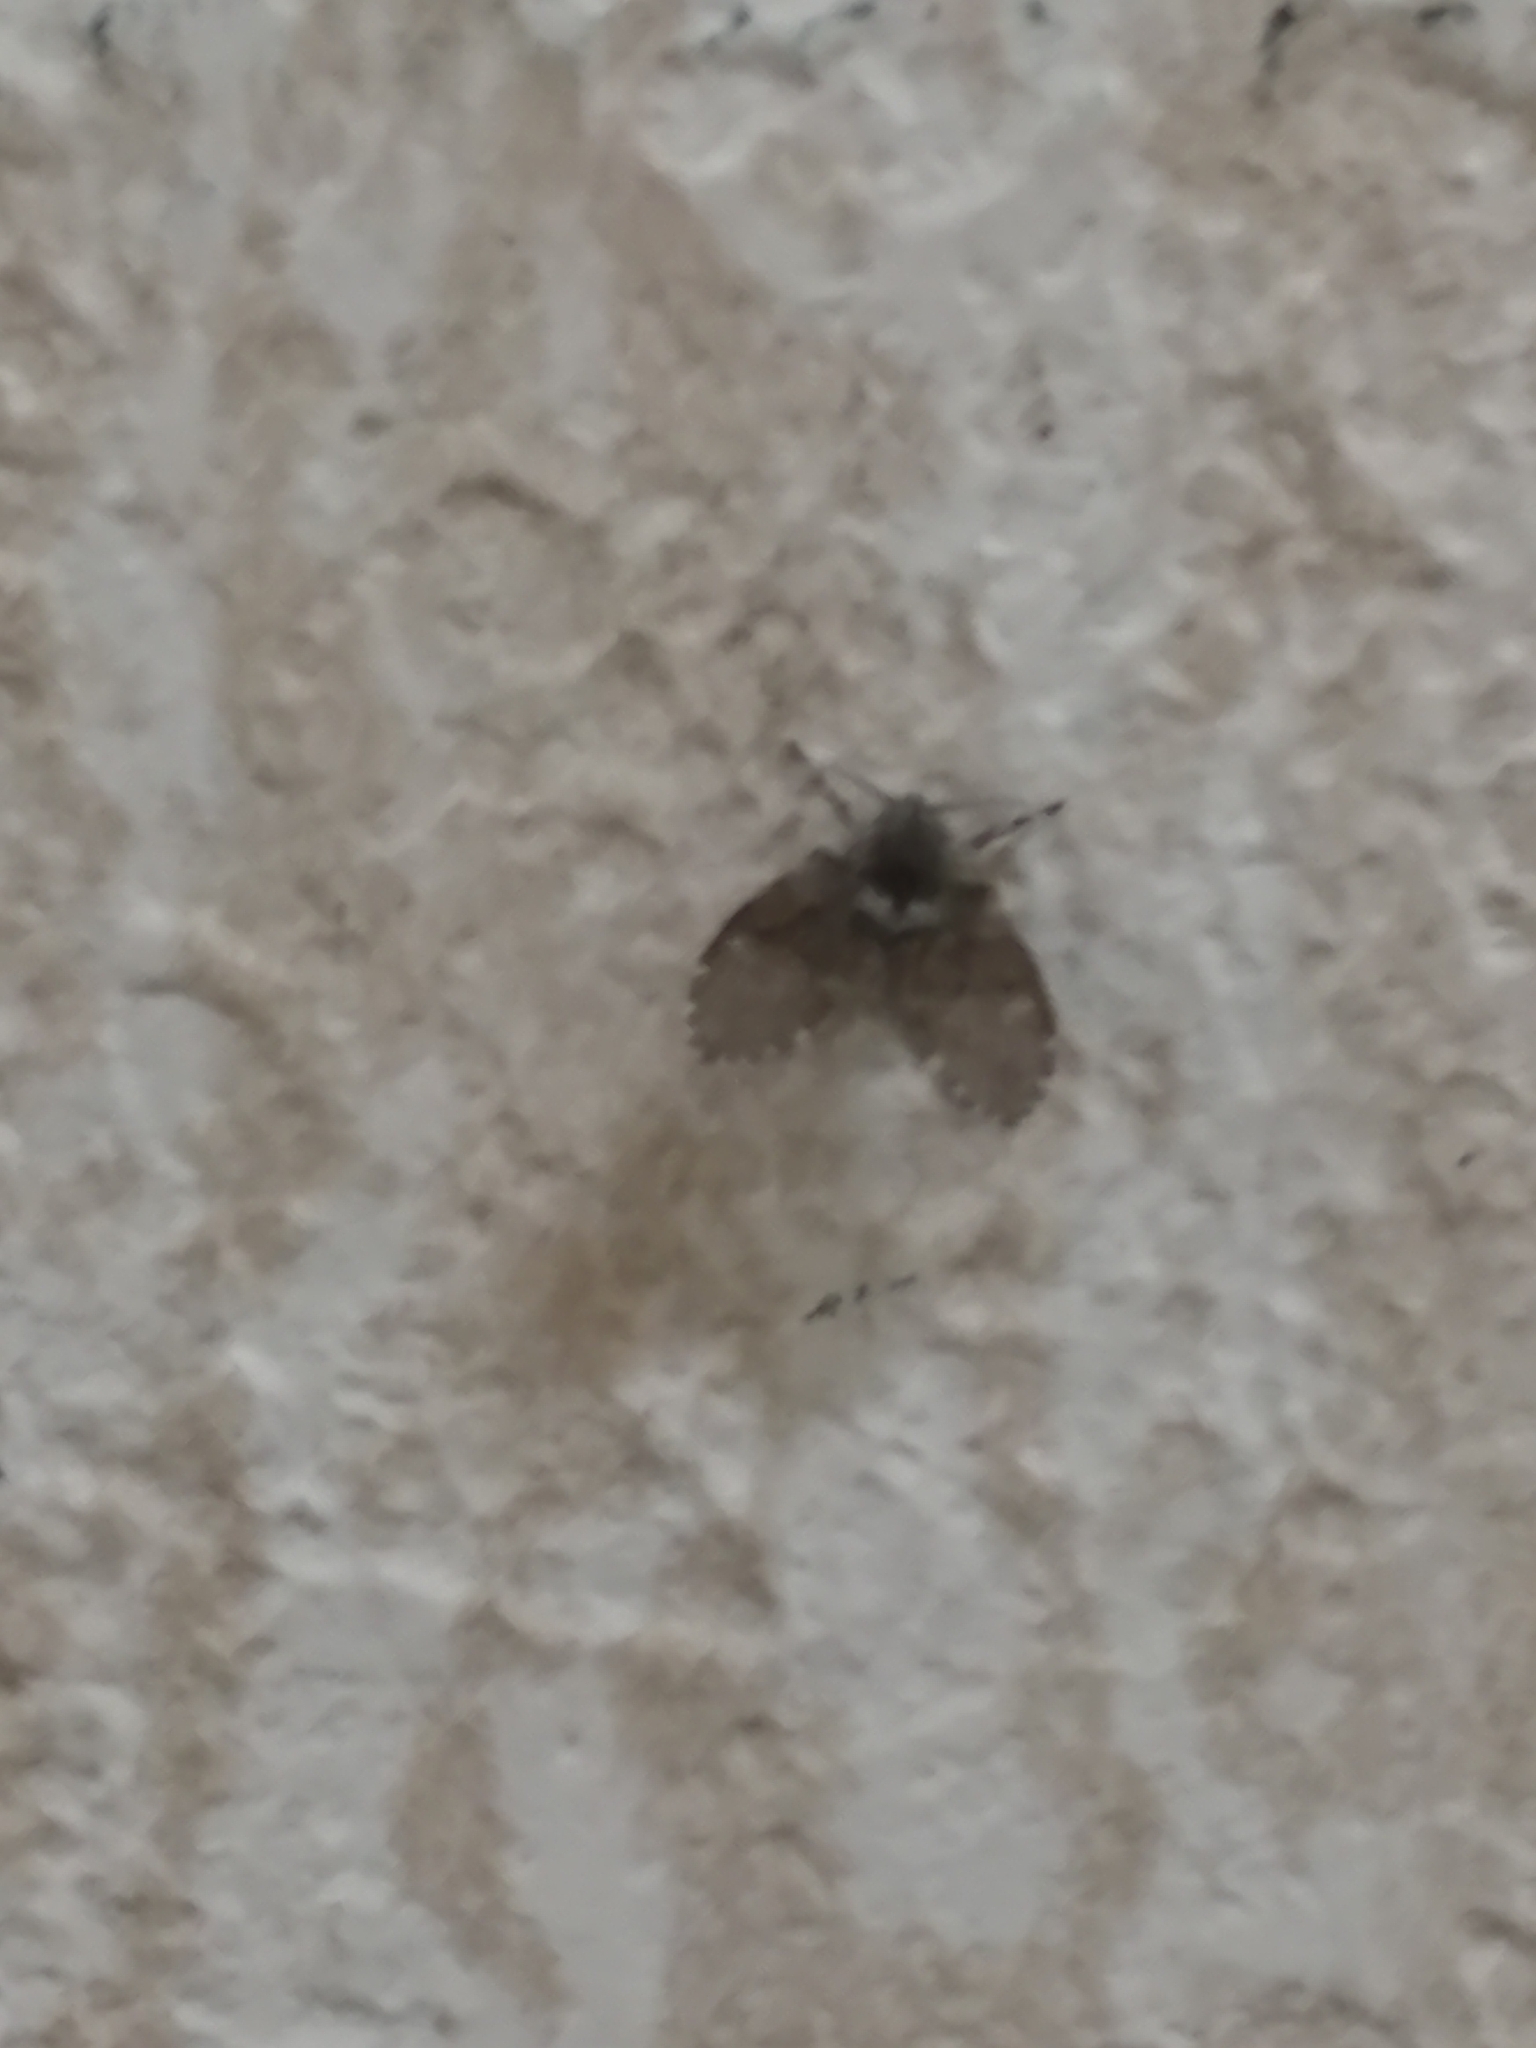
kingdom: Animalia
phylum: Arthropoda
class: Insecta
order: Diptera
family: Psychodidae
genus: Clogmia
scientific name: Clogmia albipunctatus
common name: White-spotted moth fly
